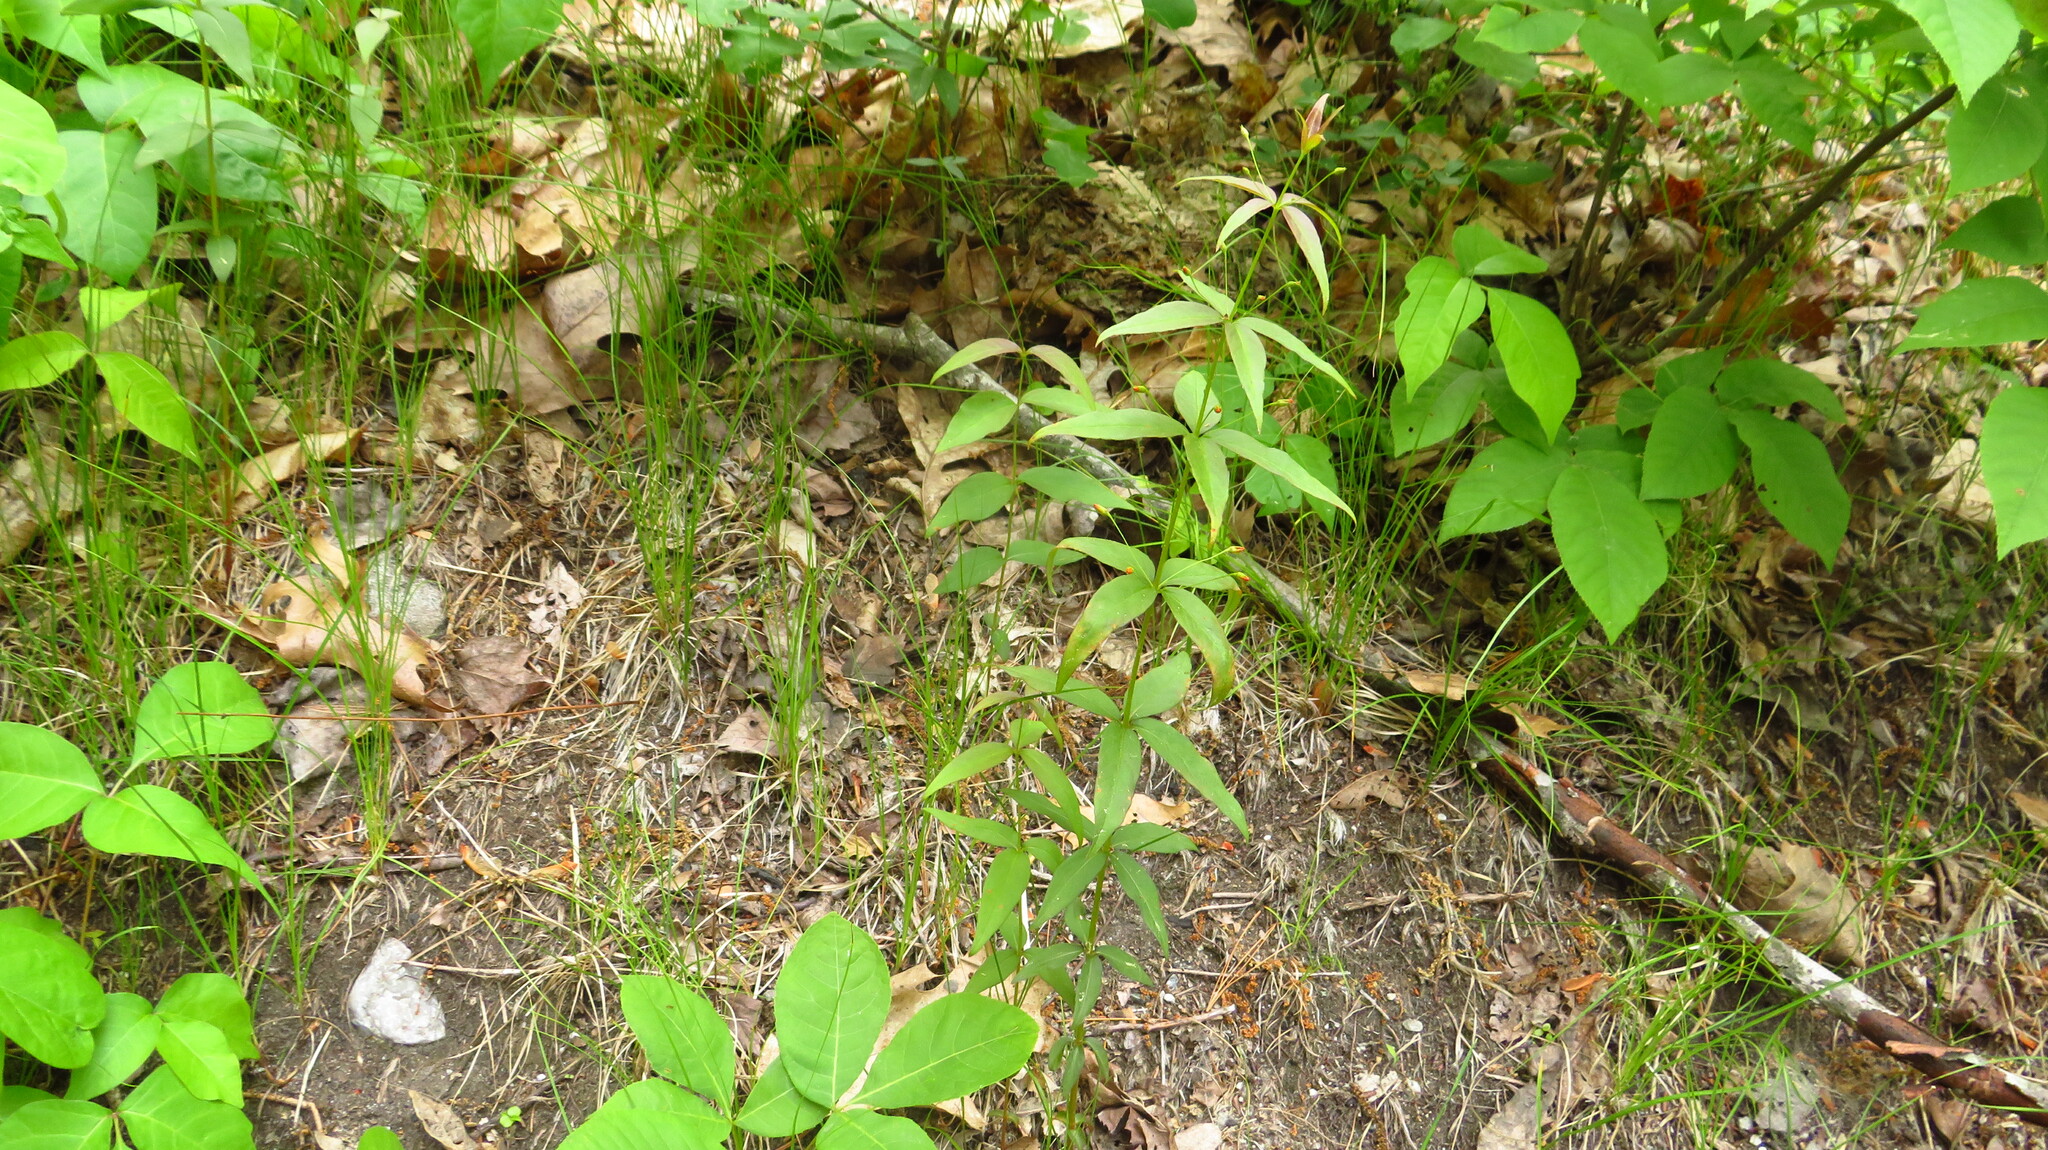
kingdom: Plantae
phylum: Tracheophyta
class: Magnoliopsida
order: Ericales
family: Primulaceae
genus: Lysimachia
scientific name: Lysimachia quadrifolia
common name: Whorled loosestrife
